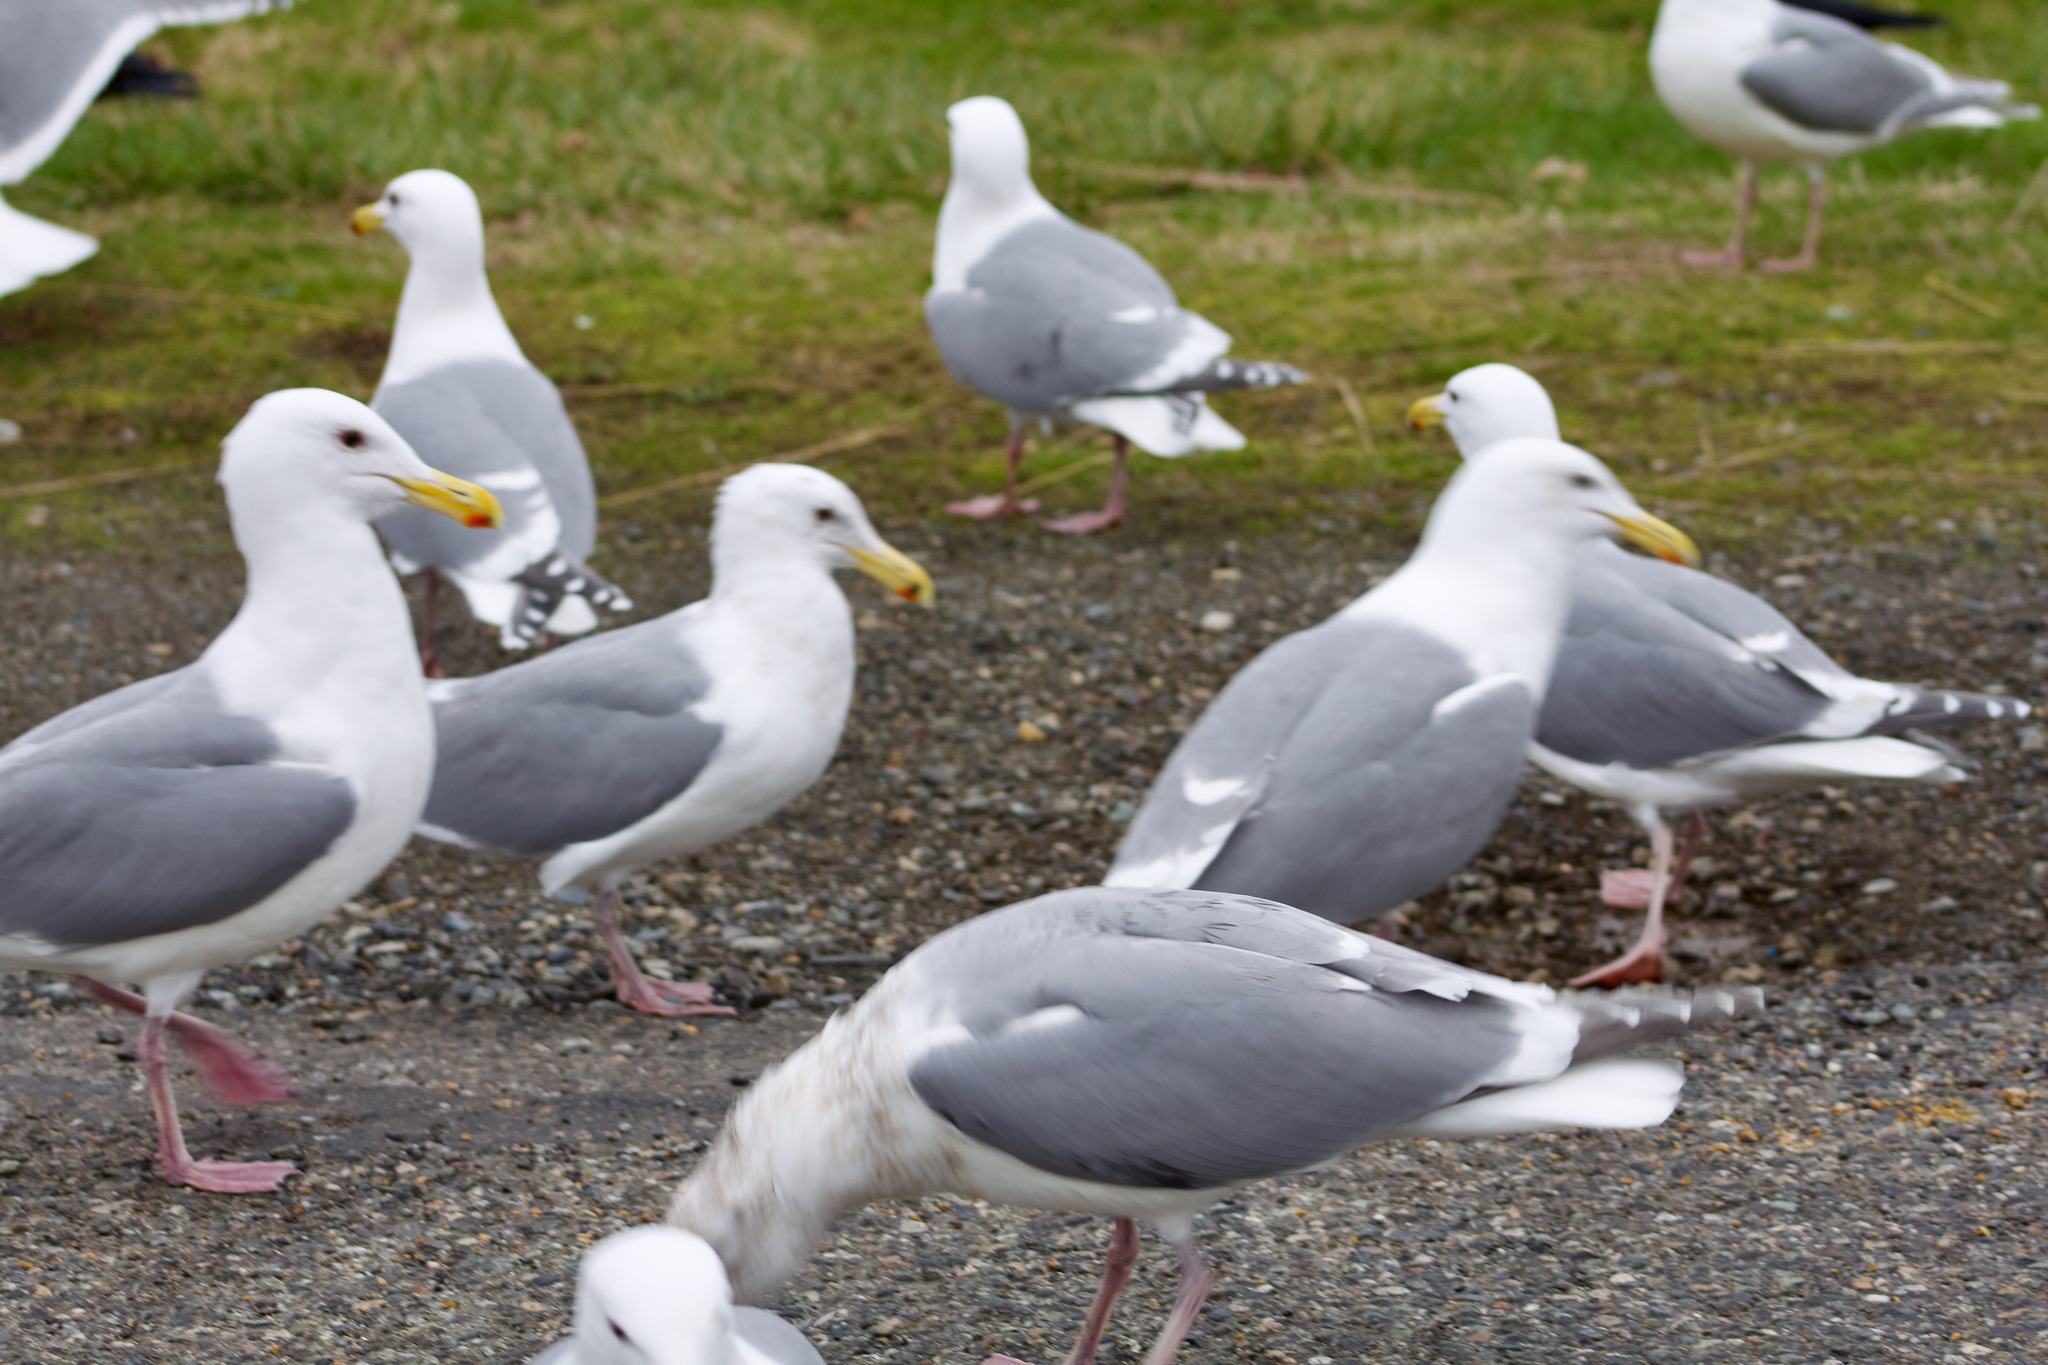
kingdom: Animalia
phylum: Chordata
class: Aves
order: Charadriiformes
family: Laridae
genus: Larus
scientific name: Larus glaucescens
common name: Glaucous-winged gull
